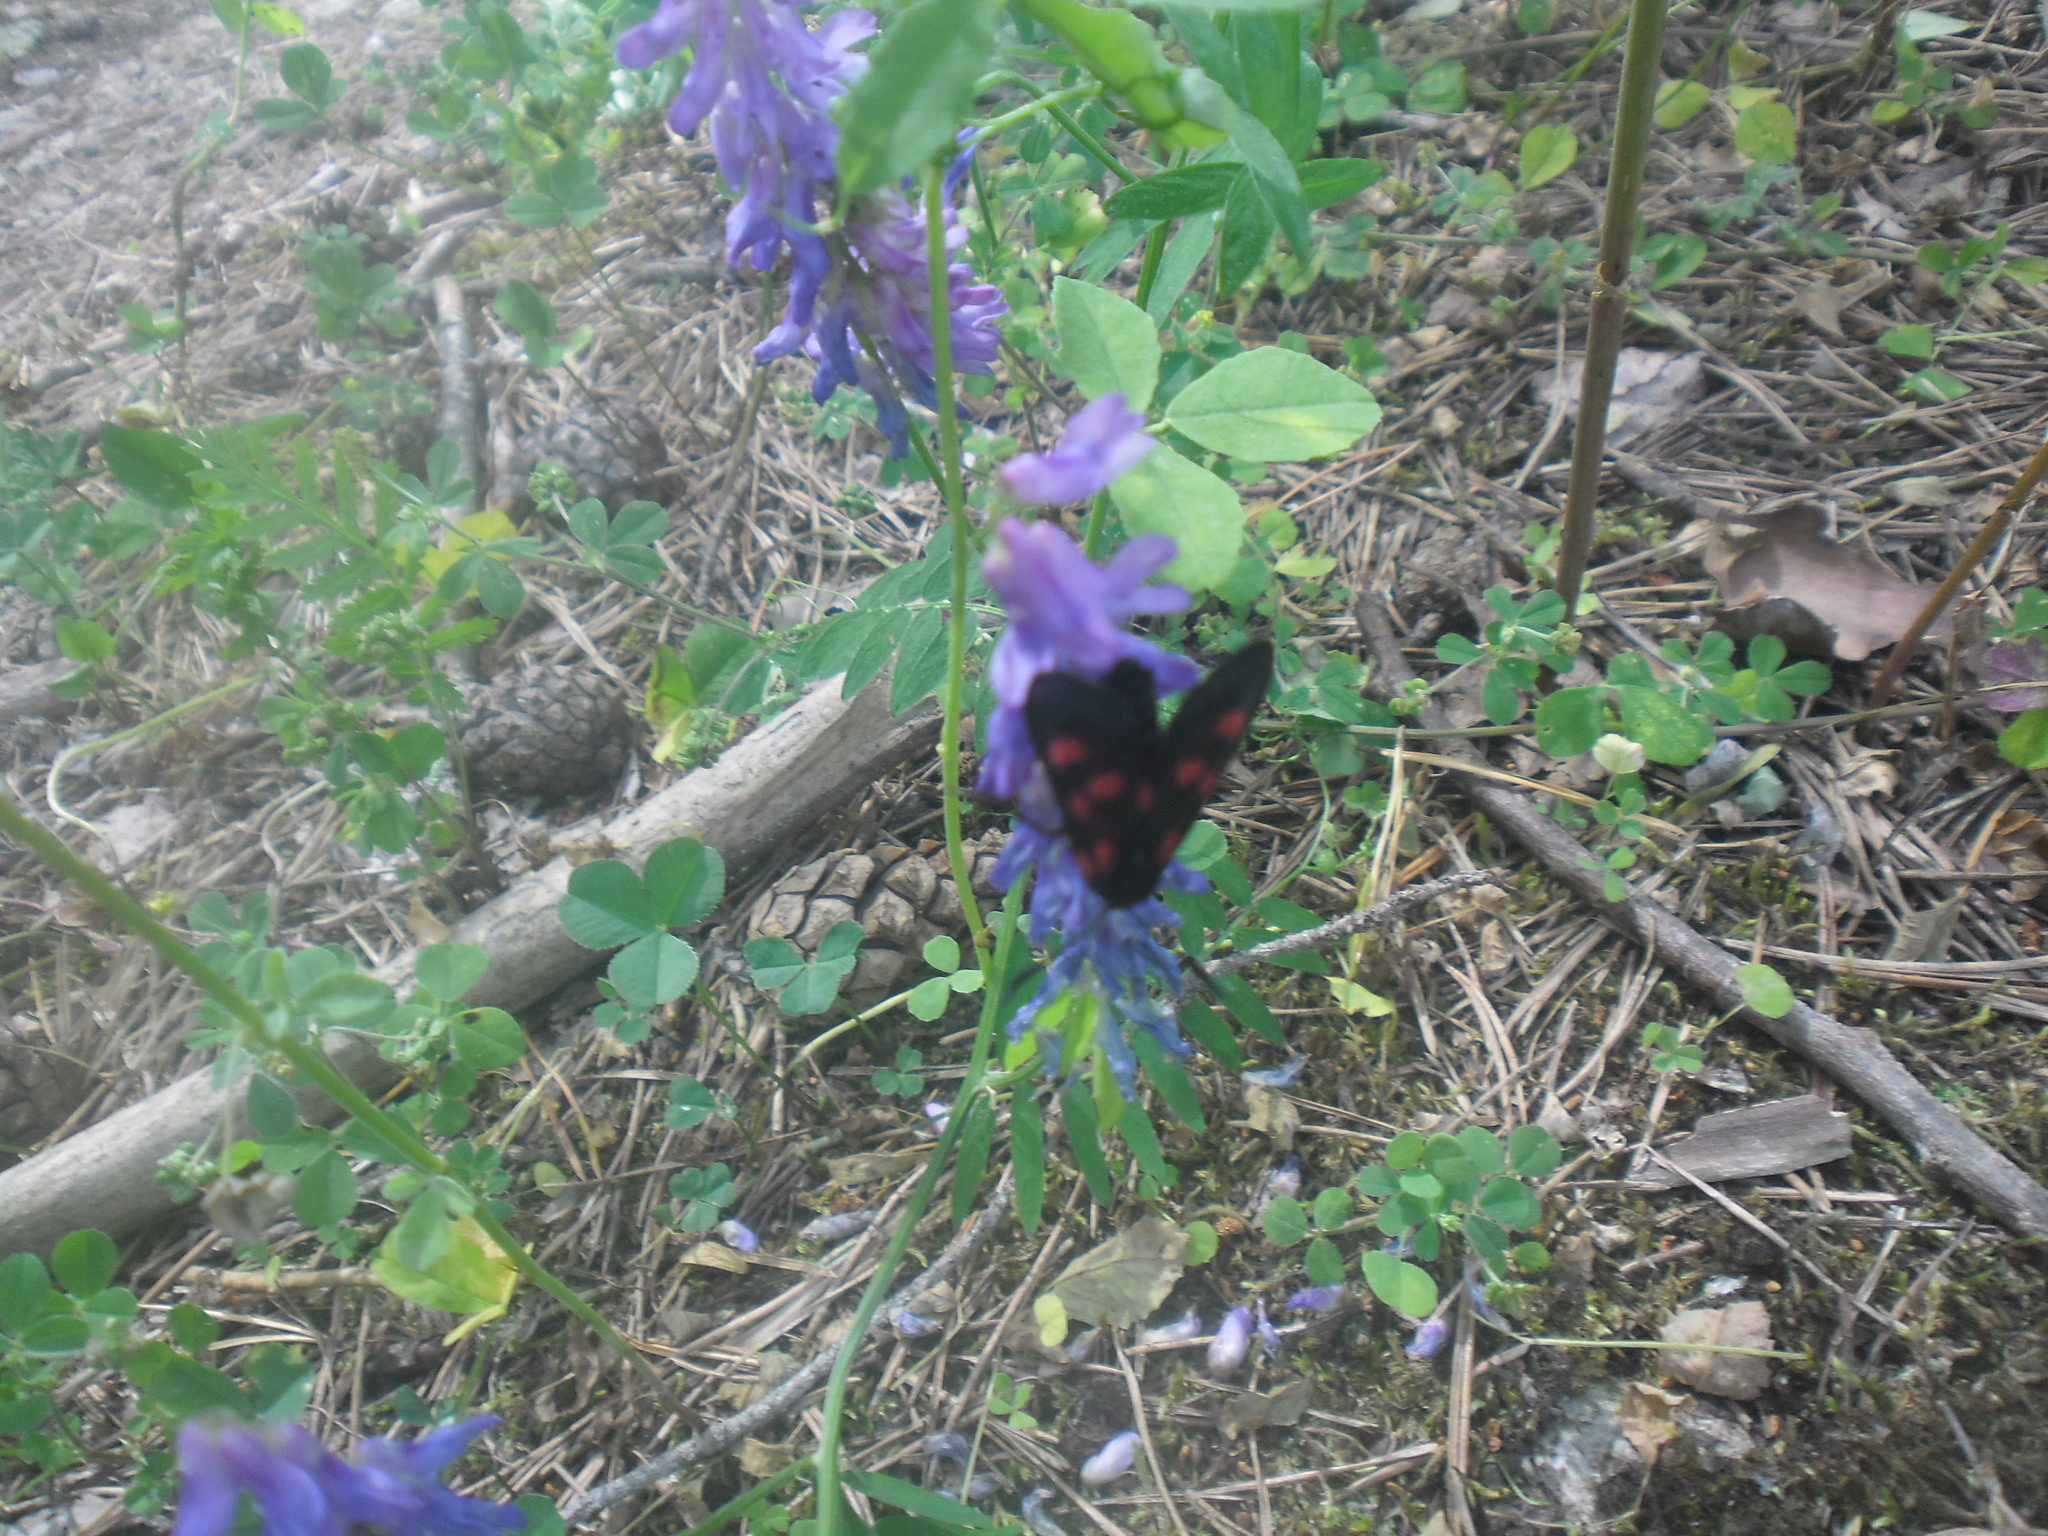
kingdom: Animalia
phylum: Arthropoda
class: Insecta
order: Lepidoptera
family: Zygaenidae
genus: Zygaena
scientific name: Zygaena lonicerae
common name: Narrow-bordered five-spot burnet
